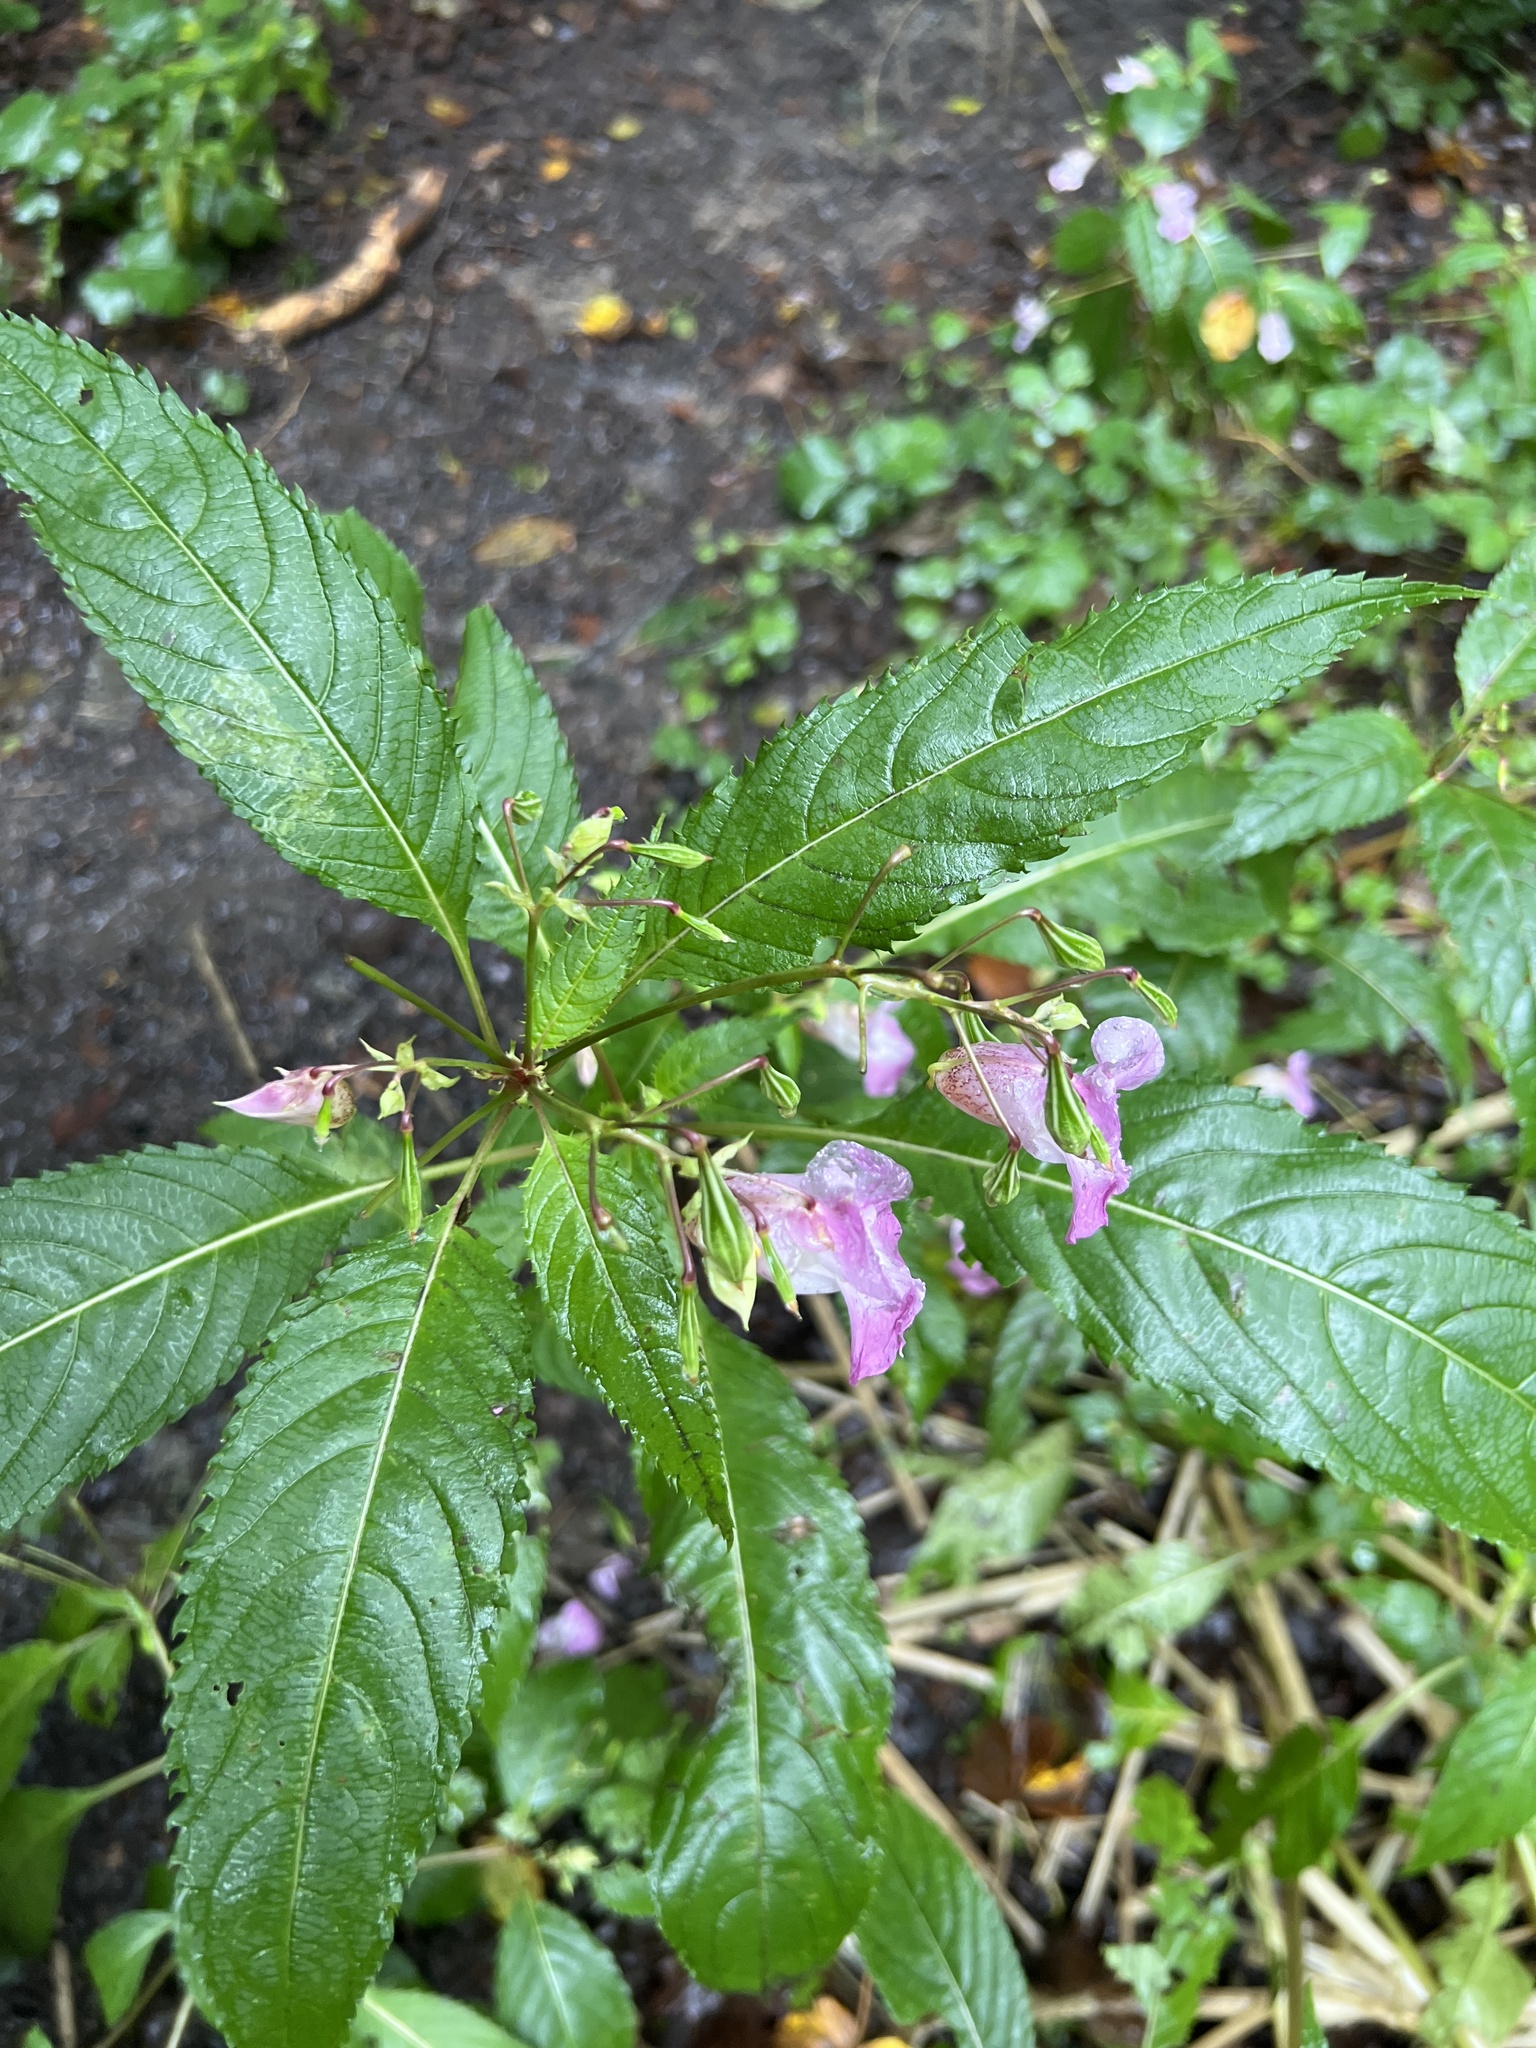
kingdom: Plantae
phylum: Tracheophyta
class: Magnoliopsida
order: Ericales
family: Balsaminaceae
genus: Impatiens
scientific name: Impatiens glandulifera
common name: Himalayan balsam
